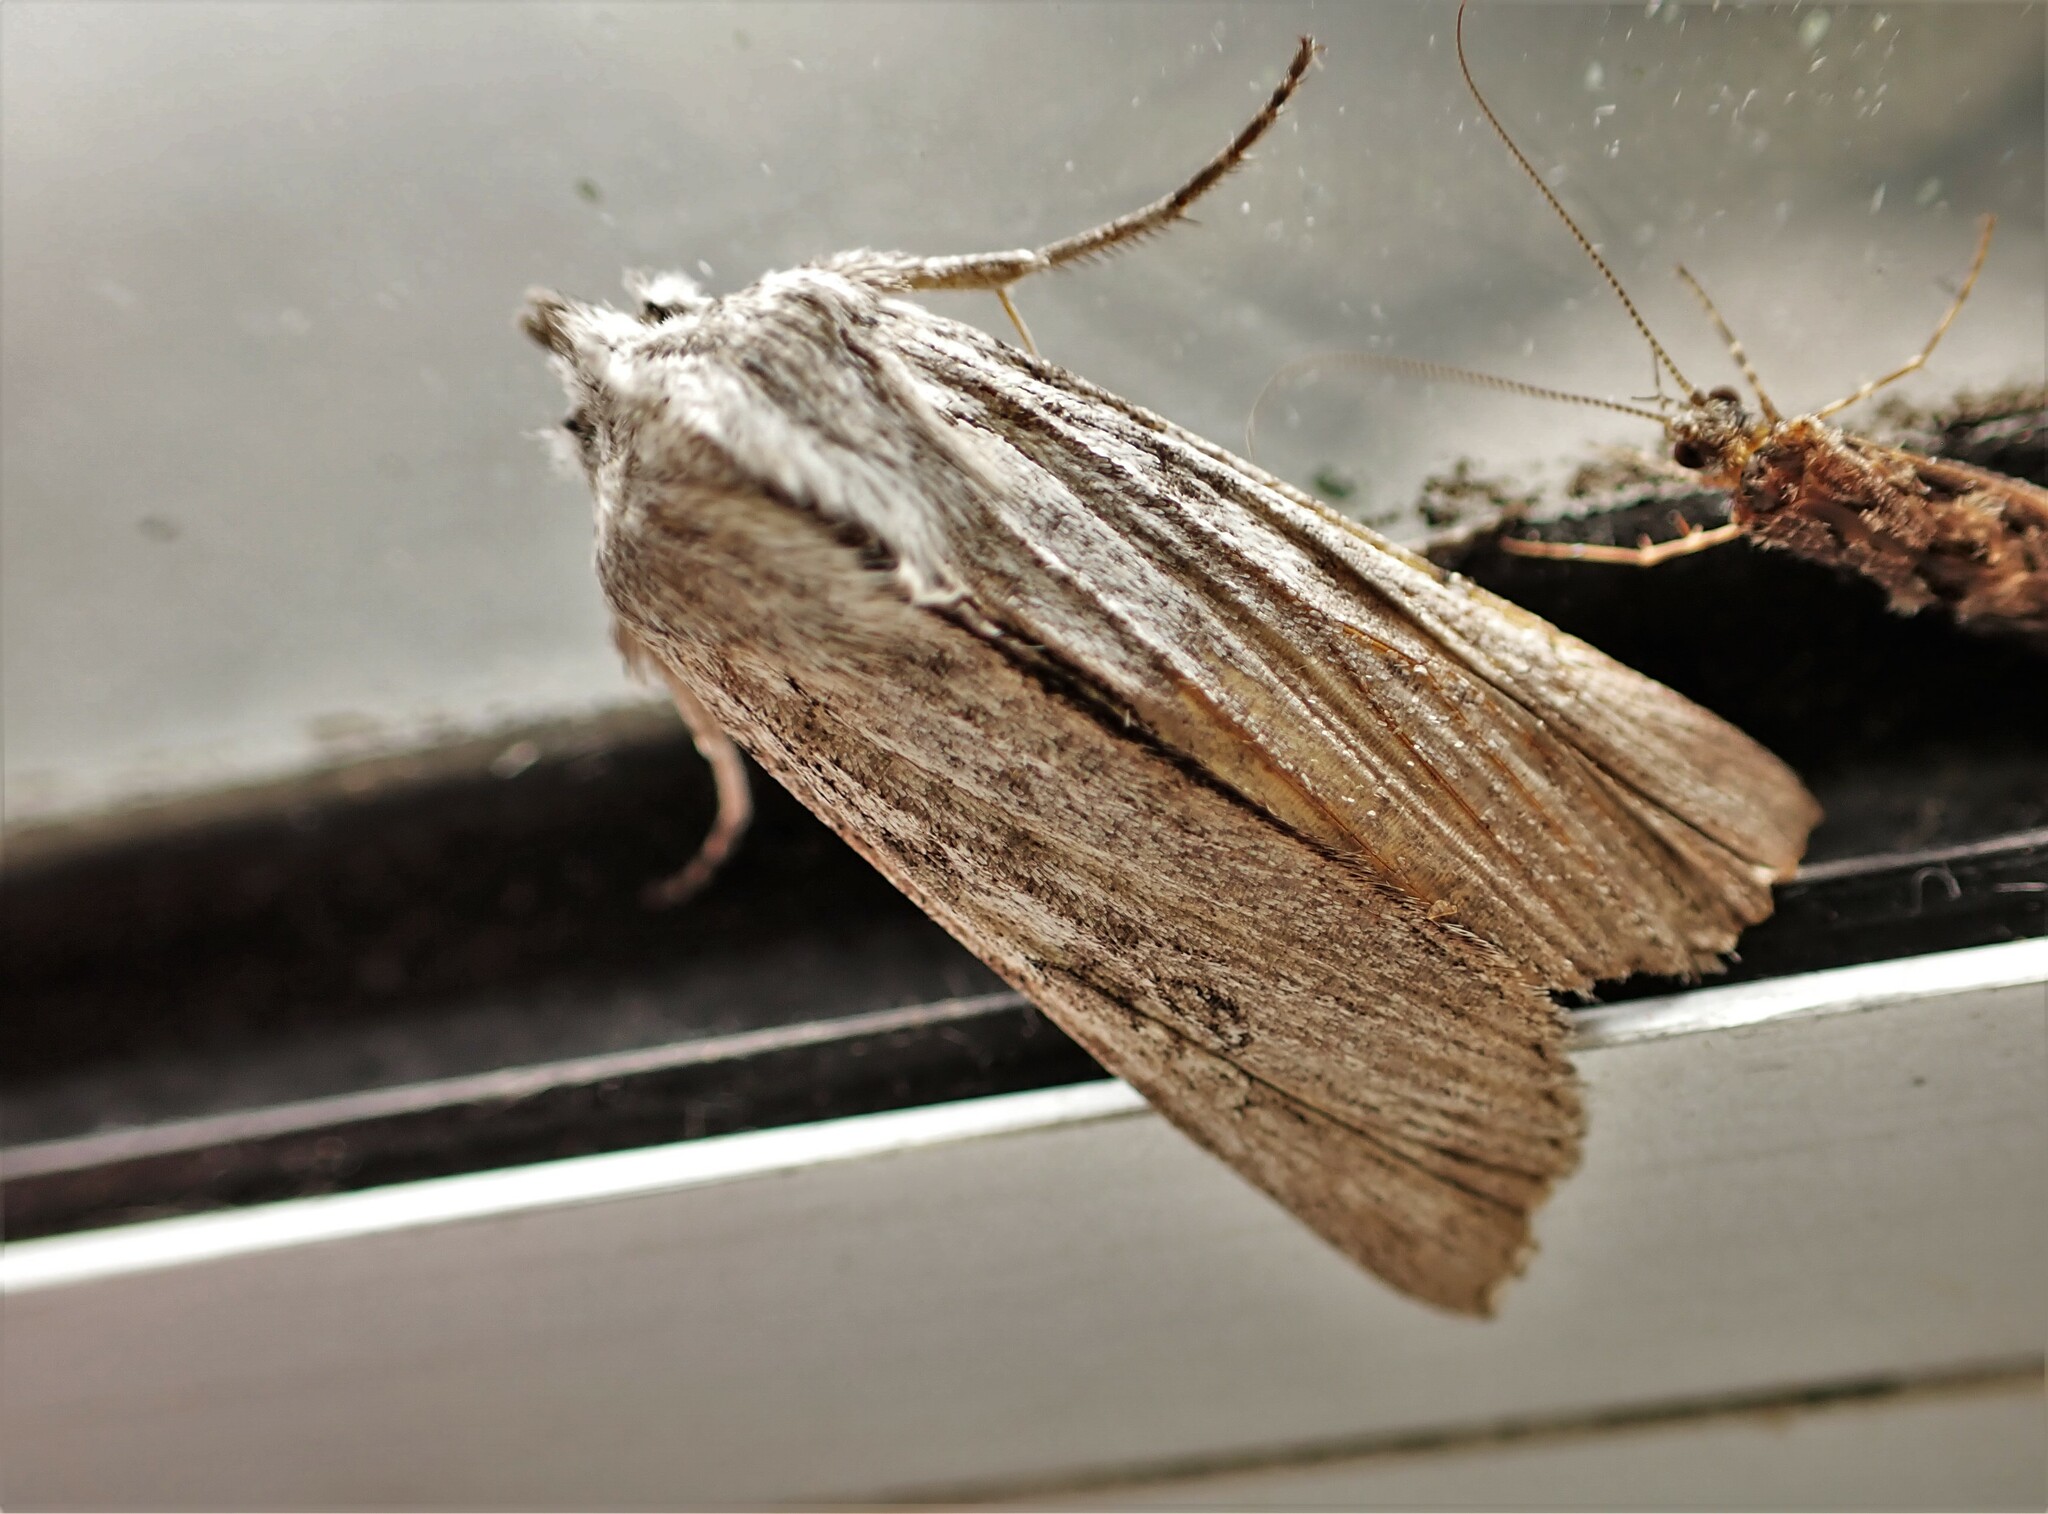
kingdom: Animalia
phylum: Arthropoda
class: Insecta
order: Lepidoptera
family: Noctuidae
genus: Physetica
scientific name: Physetica phricias
